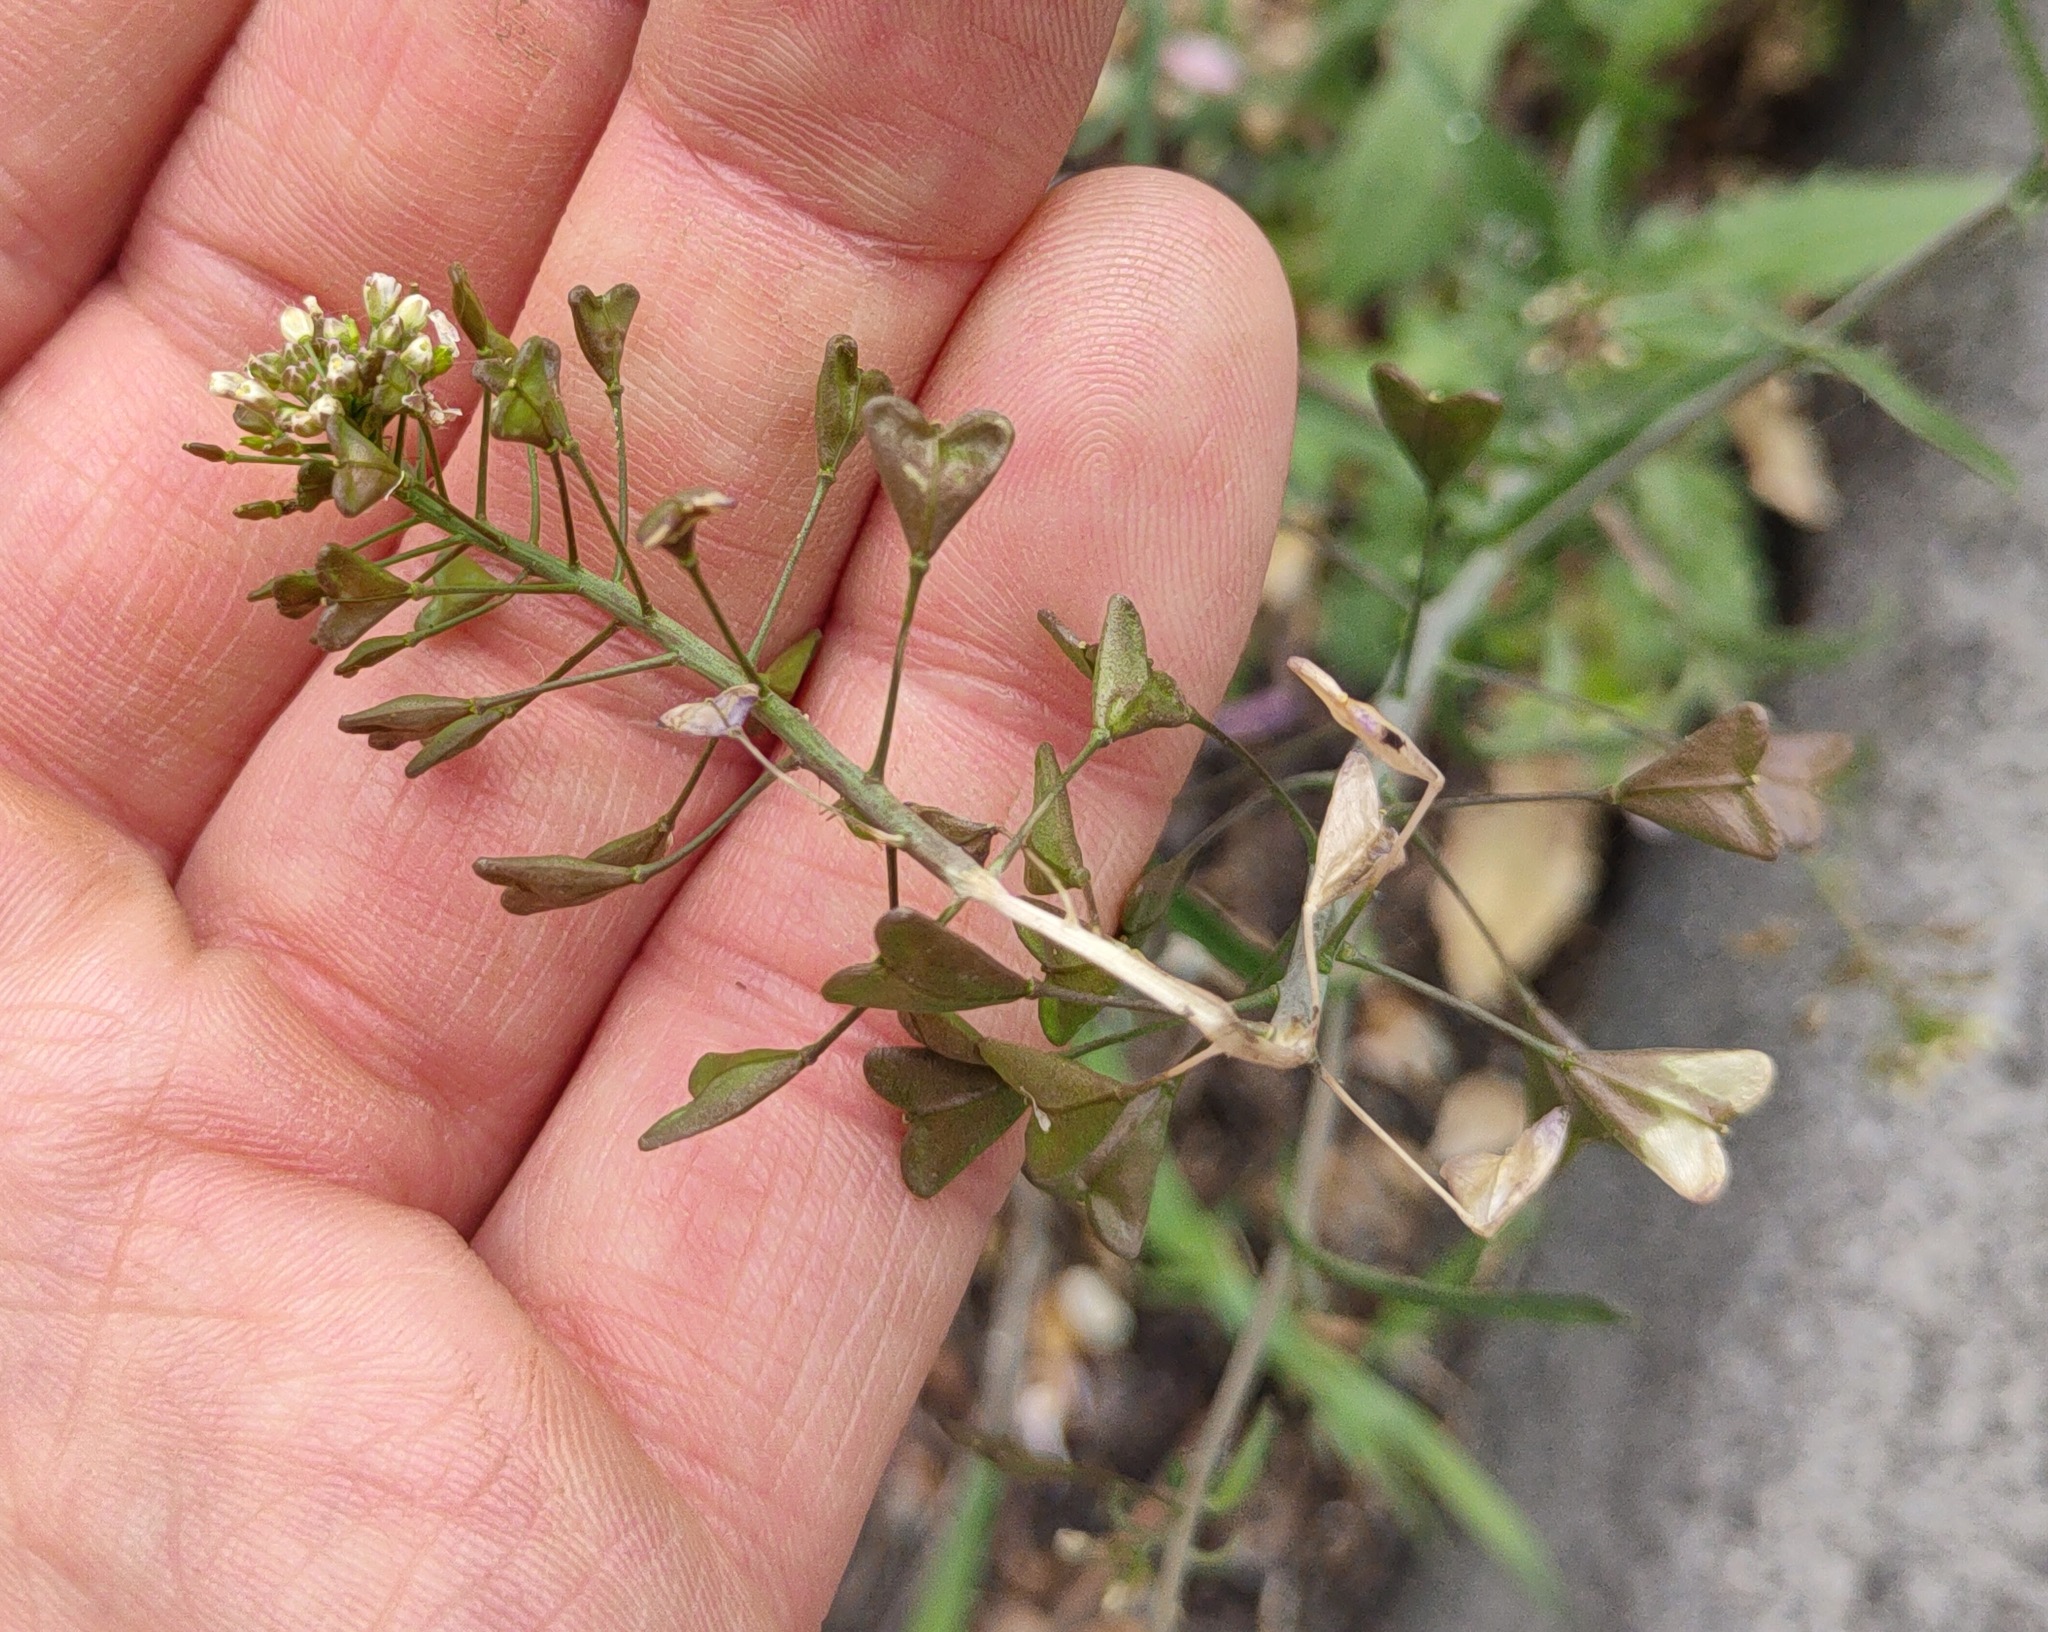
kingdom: Plantae
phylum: Tracheophyta
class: Magnoliopsida
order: Brassicales
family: Brassicaceae
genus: Capsella
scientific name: Capsella bursa-pastoris
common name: Shepherd's purse
